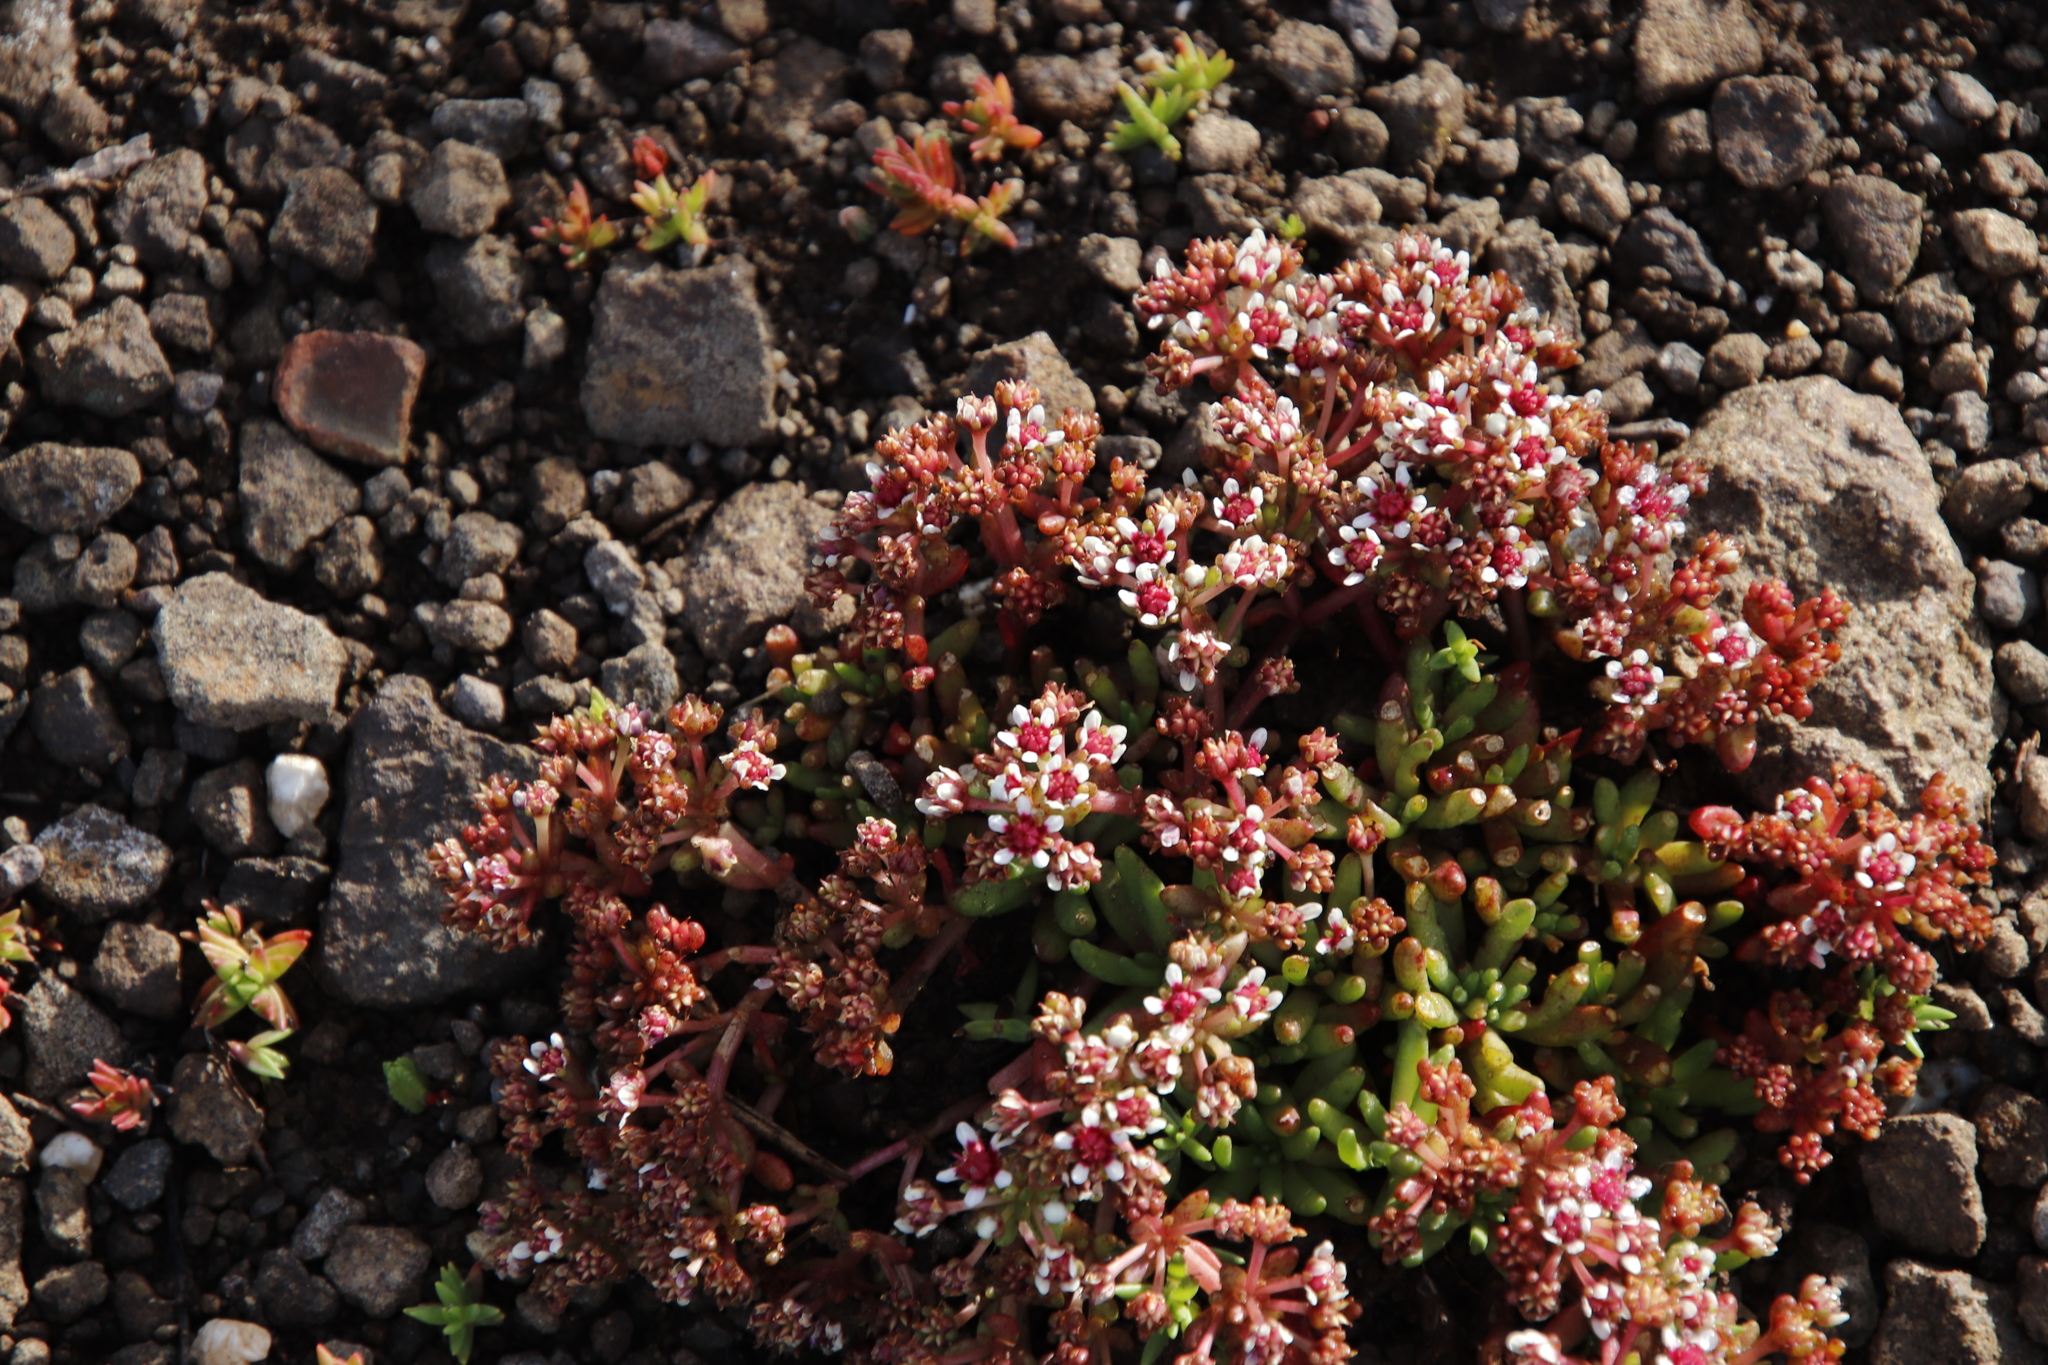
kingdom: Plantae
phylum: Tracheophyta
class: Magnoliopsida
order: Saxifragales
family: Crassulaceae
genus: Crassula
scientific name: Crassula peploides
